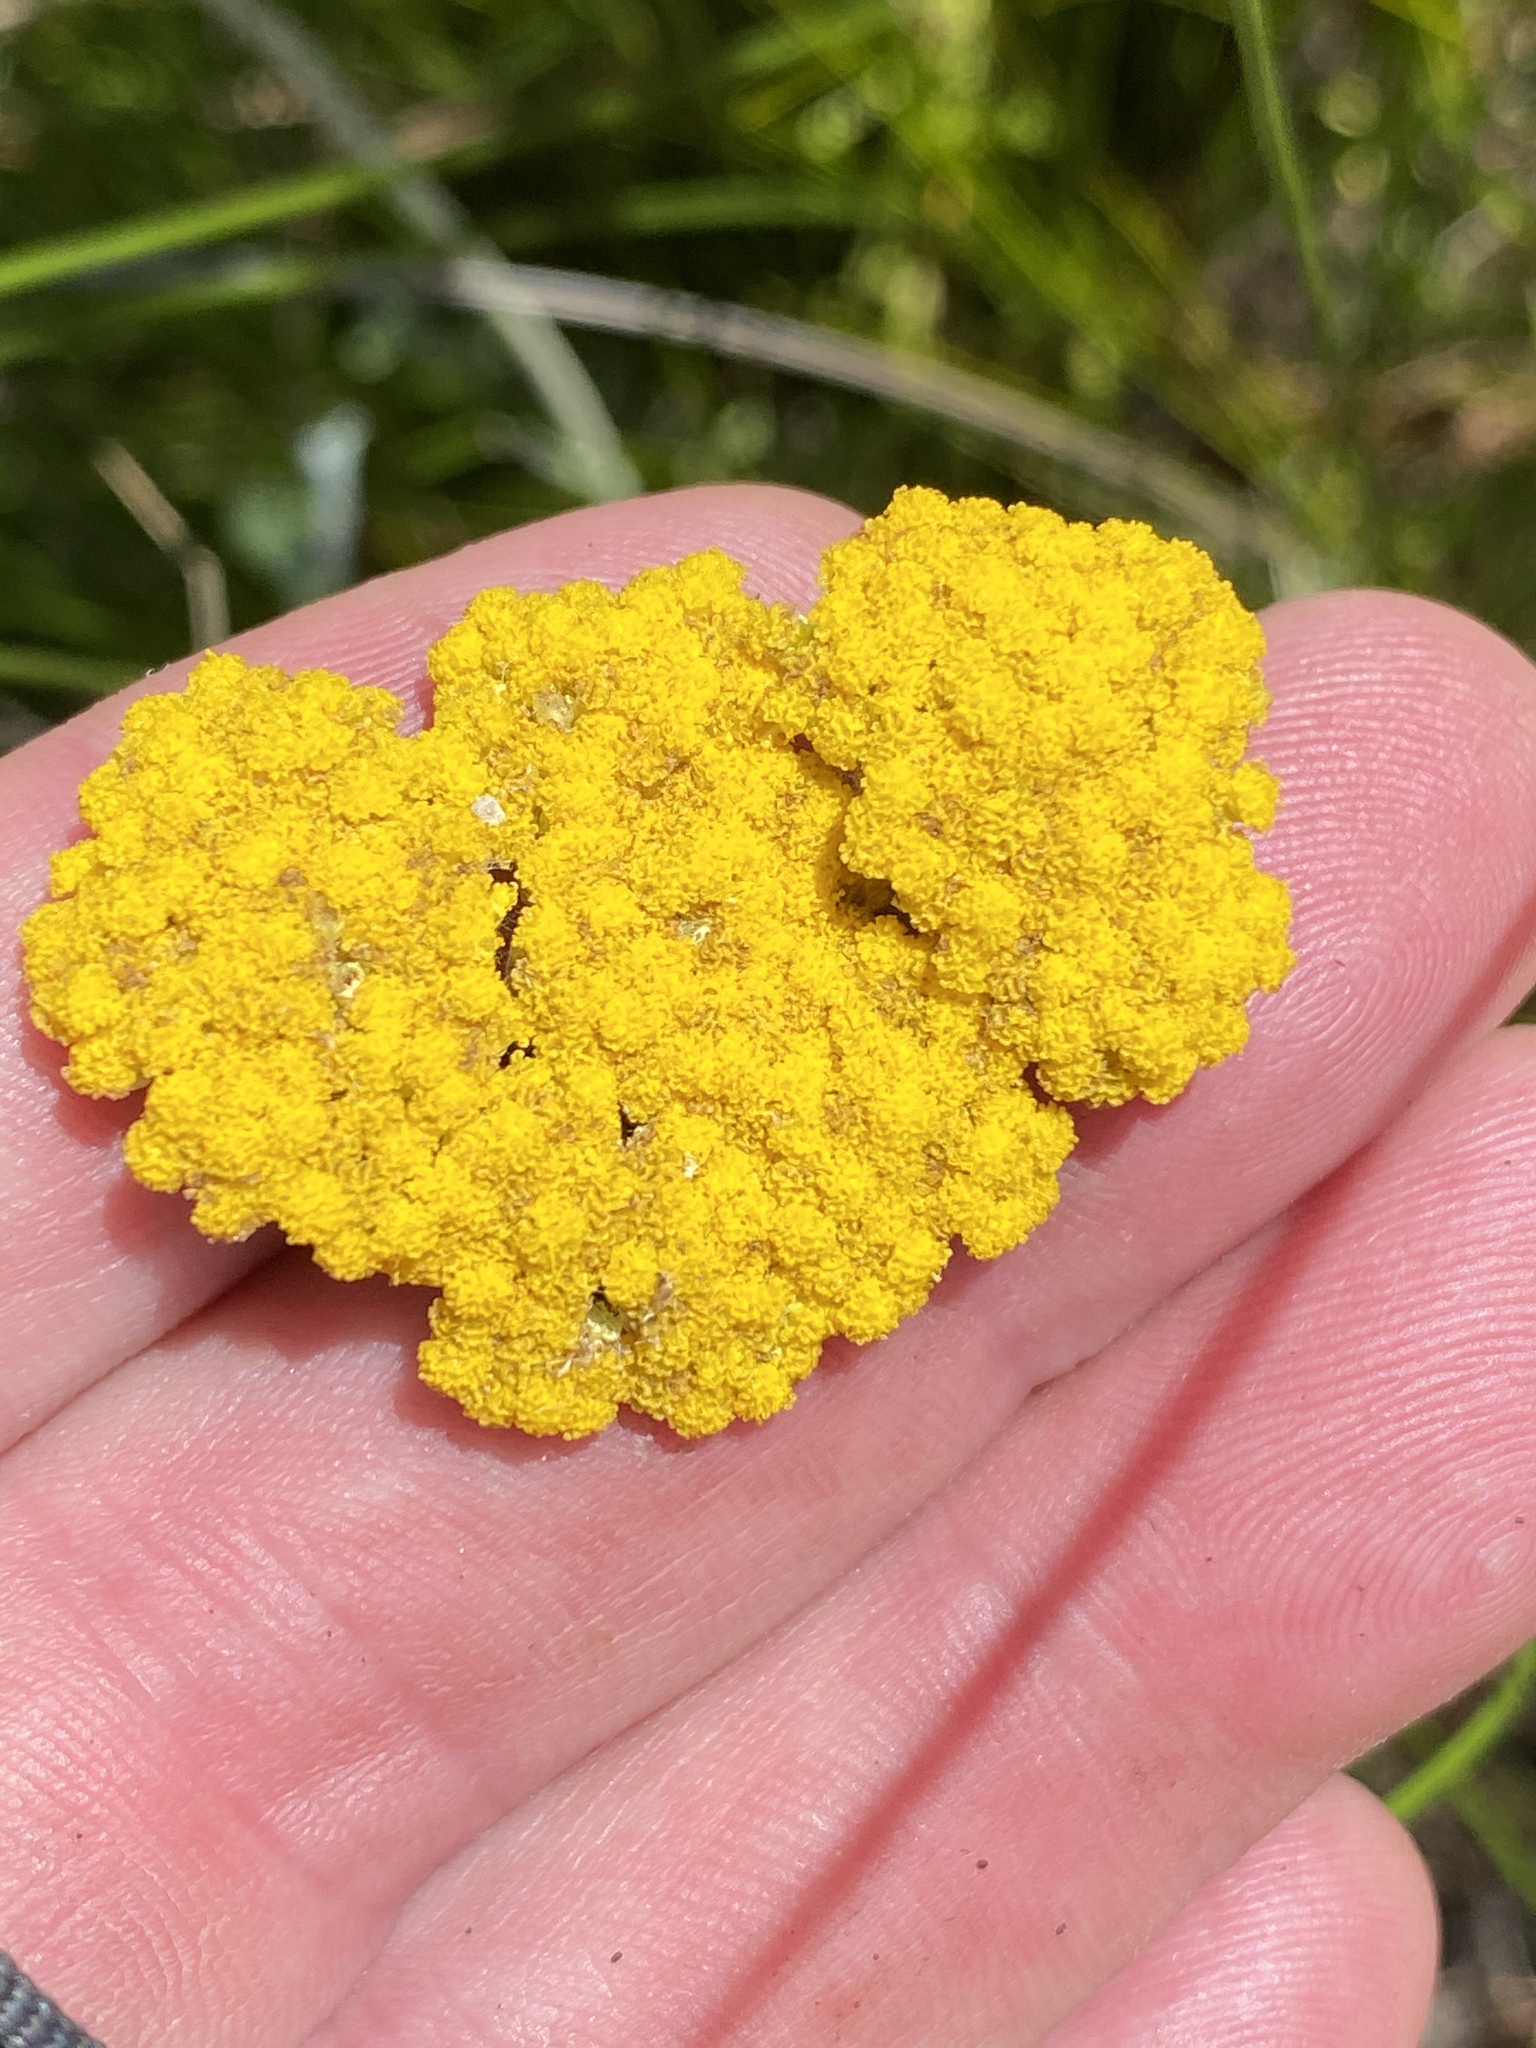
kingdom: Plantae
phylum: Tracheophyta
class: Magnoliopsida
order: Asterales
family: Asteraceae
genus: Helichrysum
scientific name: Helichrysum odoratissimum
